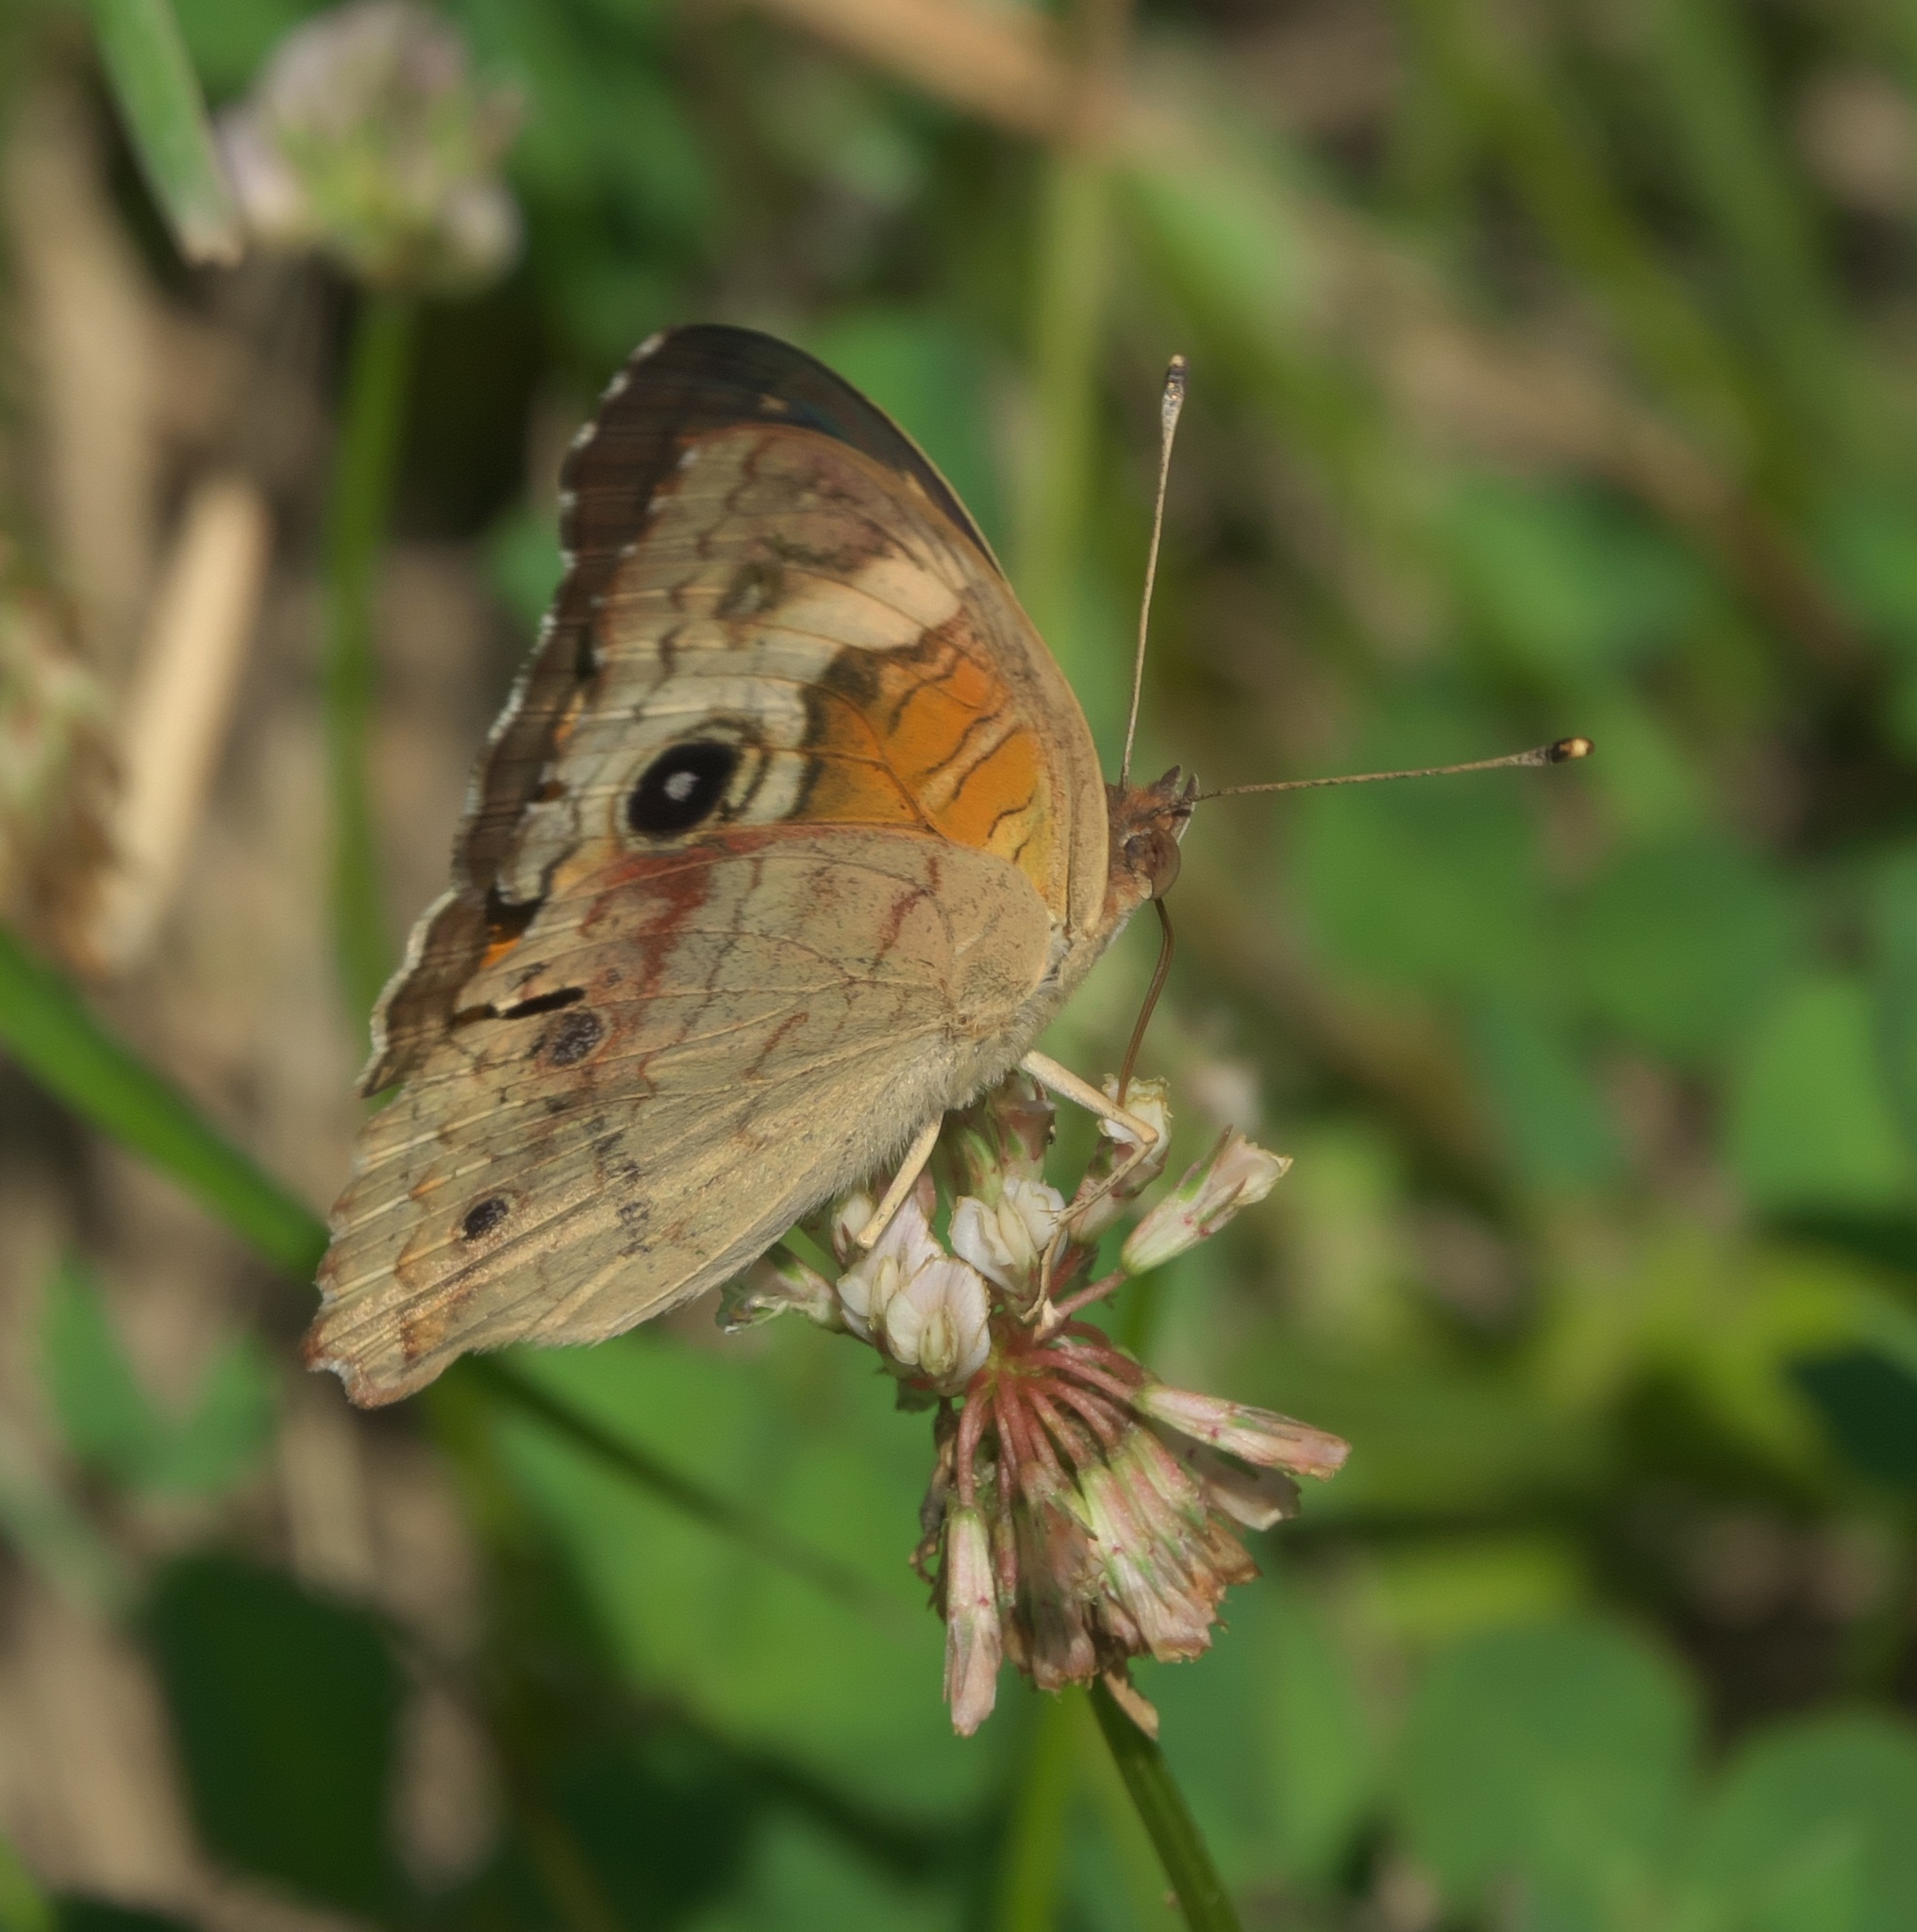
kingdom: Animalia
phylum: Arthropoda
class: Insecta
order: Lepidoptera
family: Nymphalidae
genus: Junonia
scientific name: Junonia coenia
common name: Common buckeye
